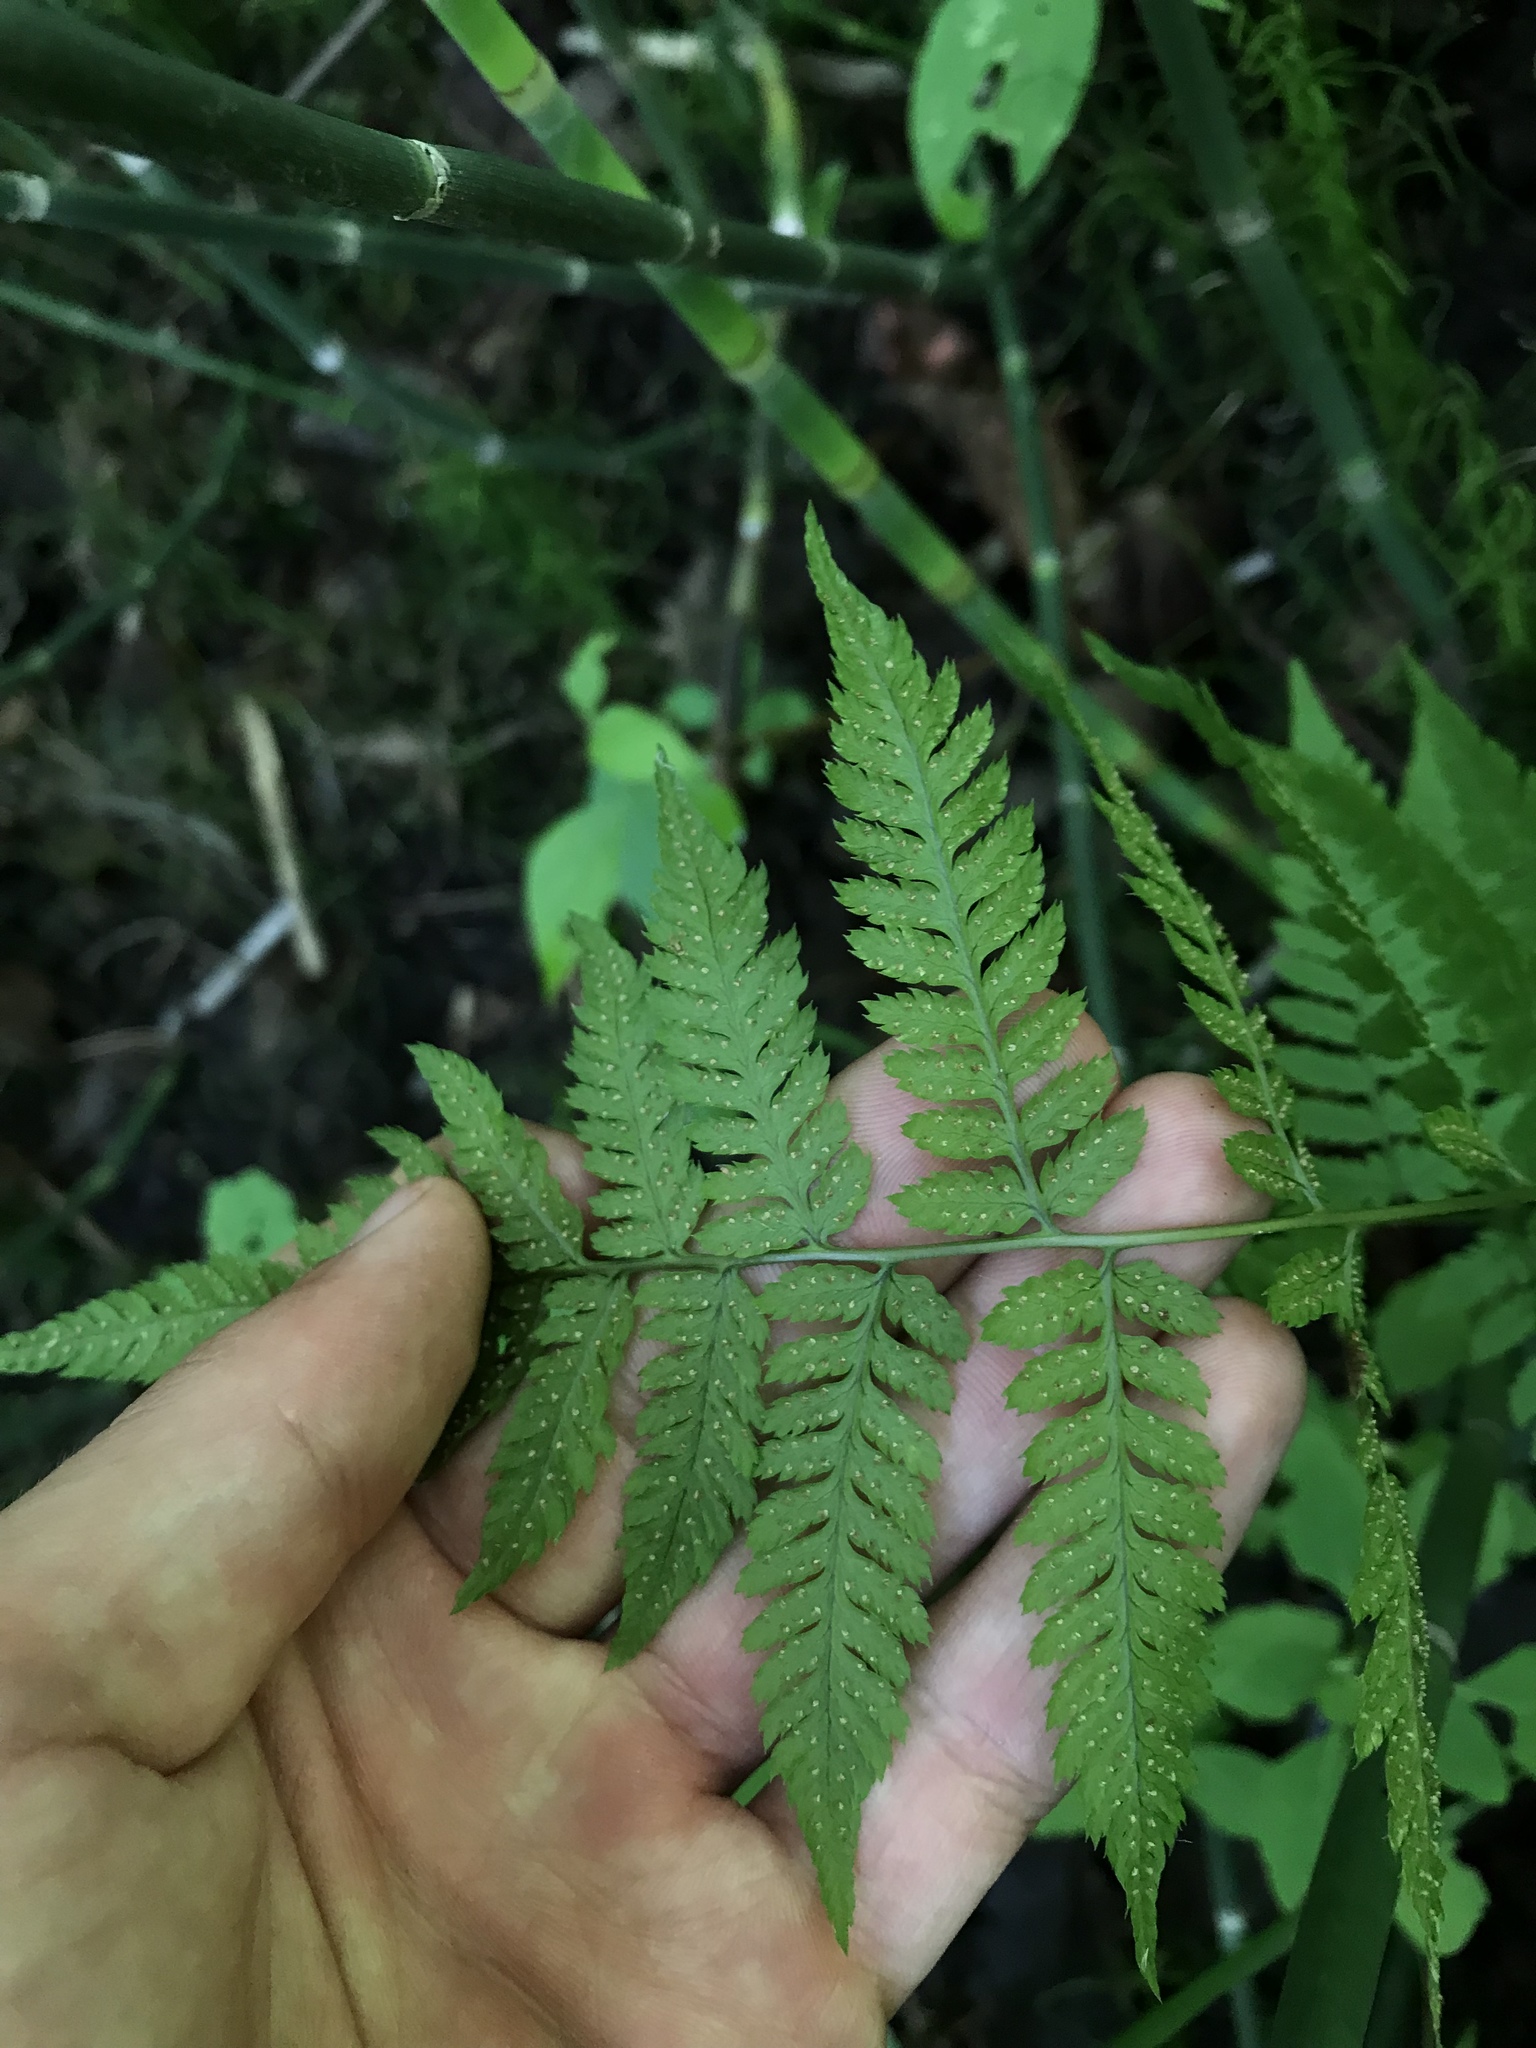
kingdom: Plantae
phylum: Tracheophyta
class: Polypodiopsida
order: Polypodiales
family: Dryopteridaceae
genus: Dryopteris
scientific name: Dryopteris carthusiana
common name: Narrow buckler-fern
